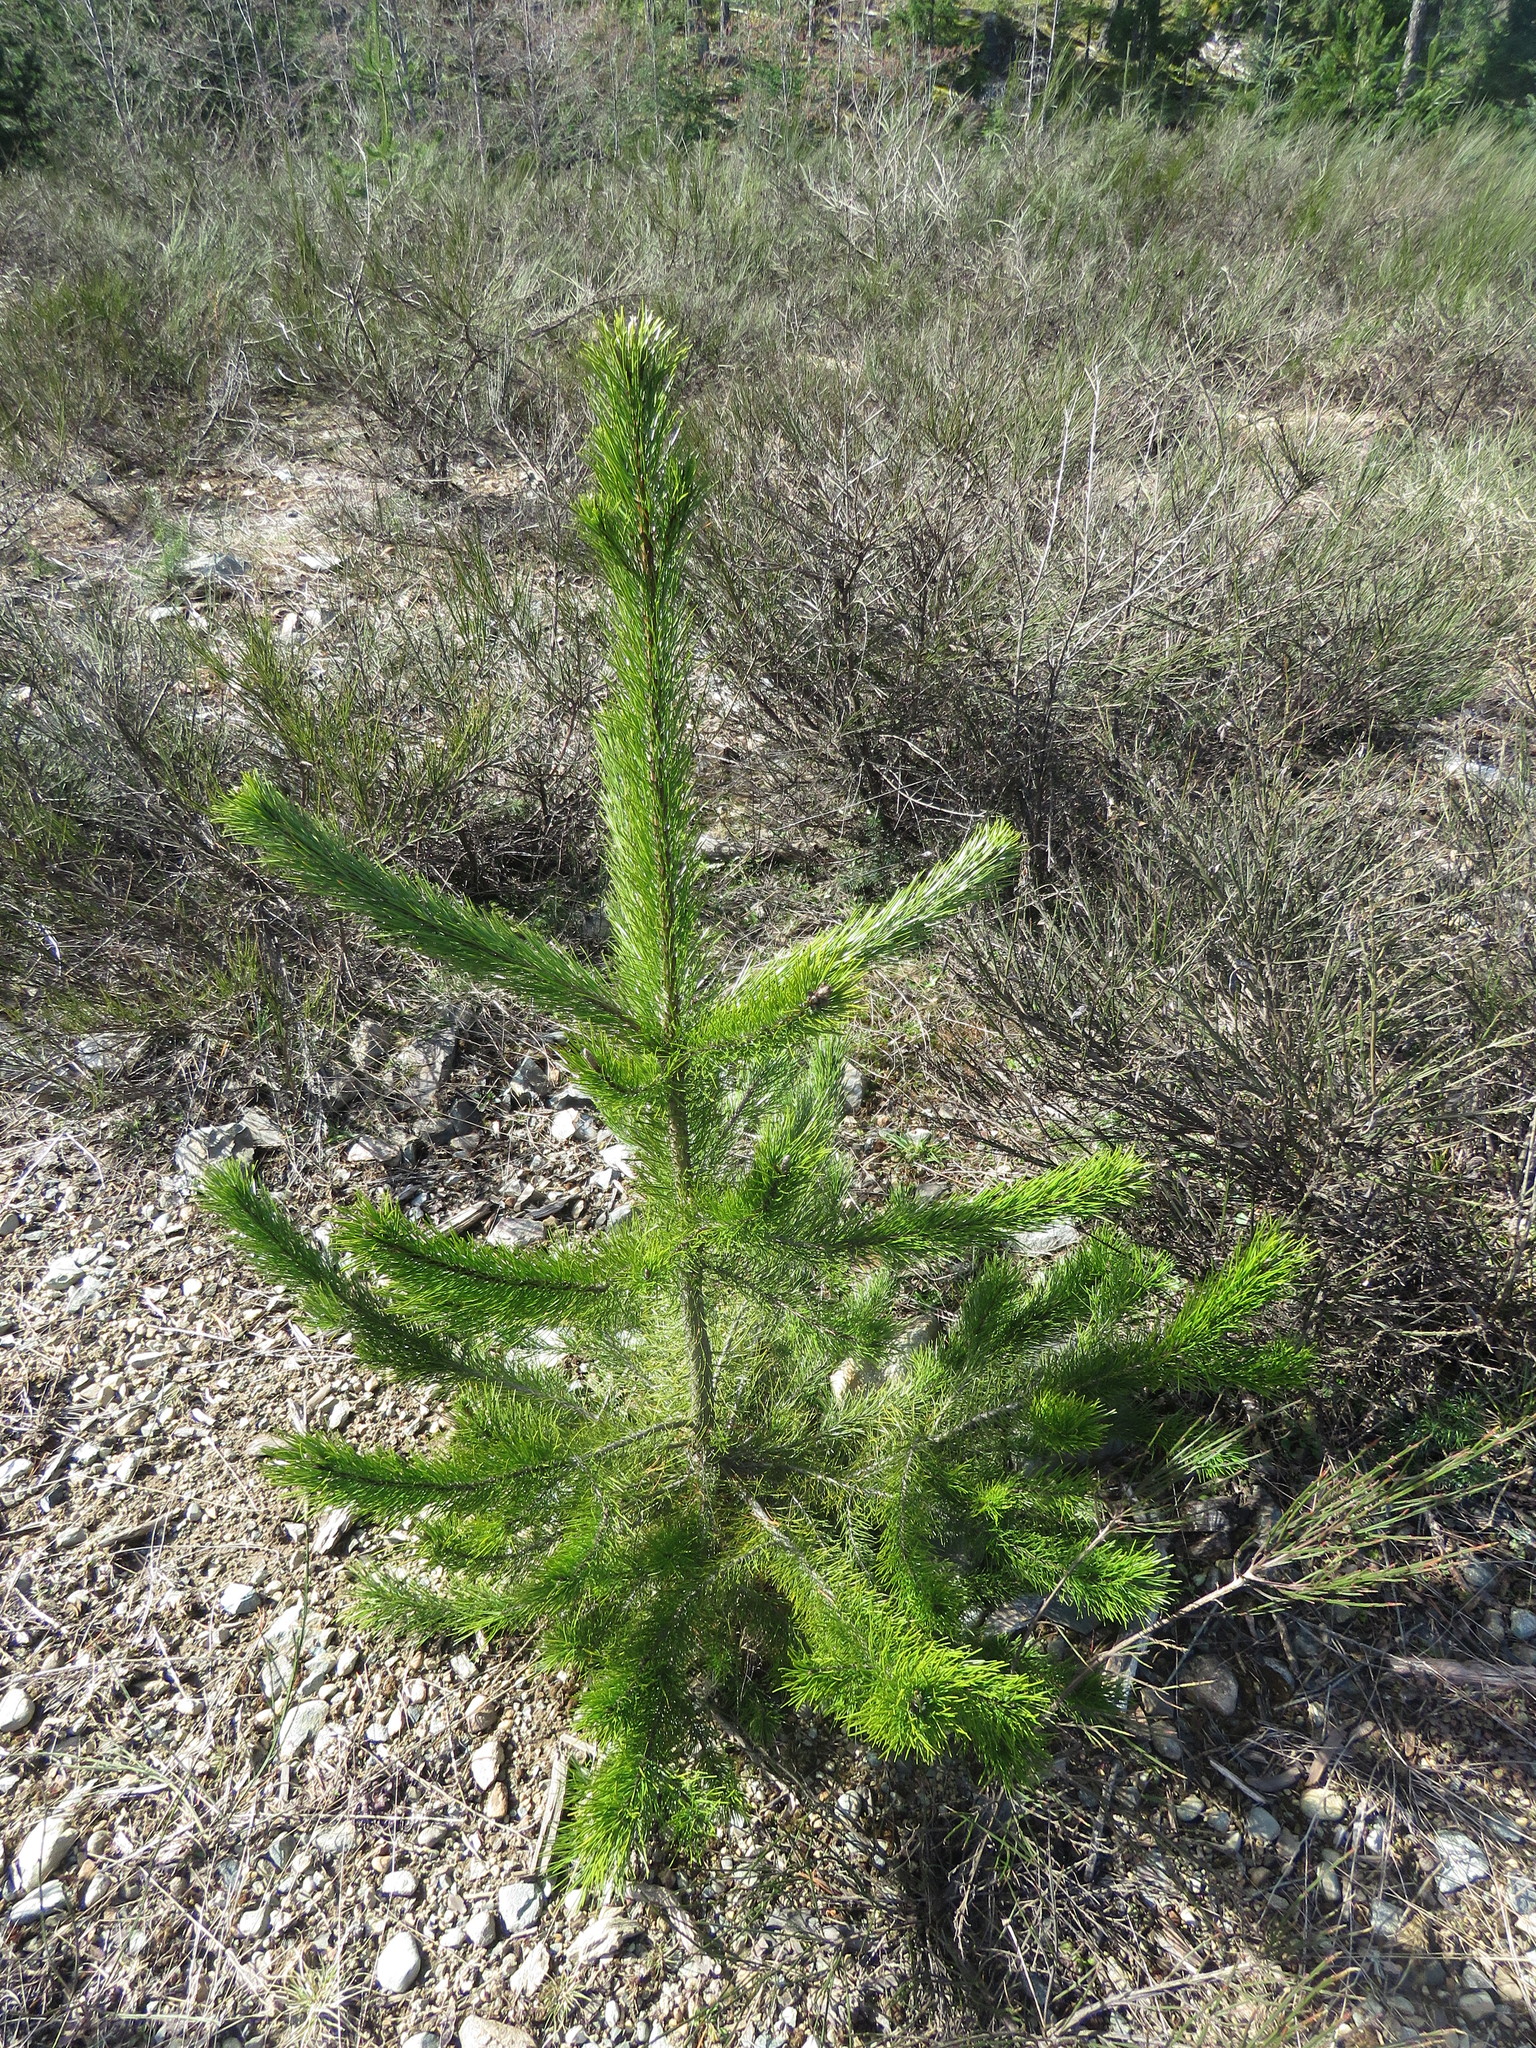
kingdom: Plantae
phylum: Tracheophyta
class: Pinopsida
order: Pinales
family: Pinaceae
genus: Pinus
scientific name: Pinus contorta
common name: Lodgepole pine
